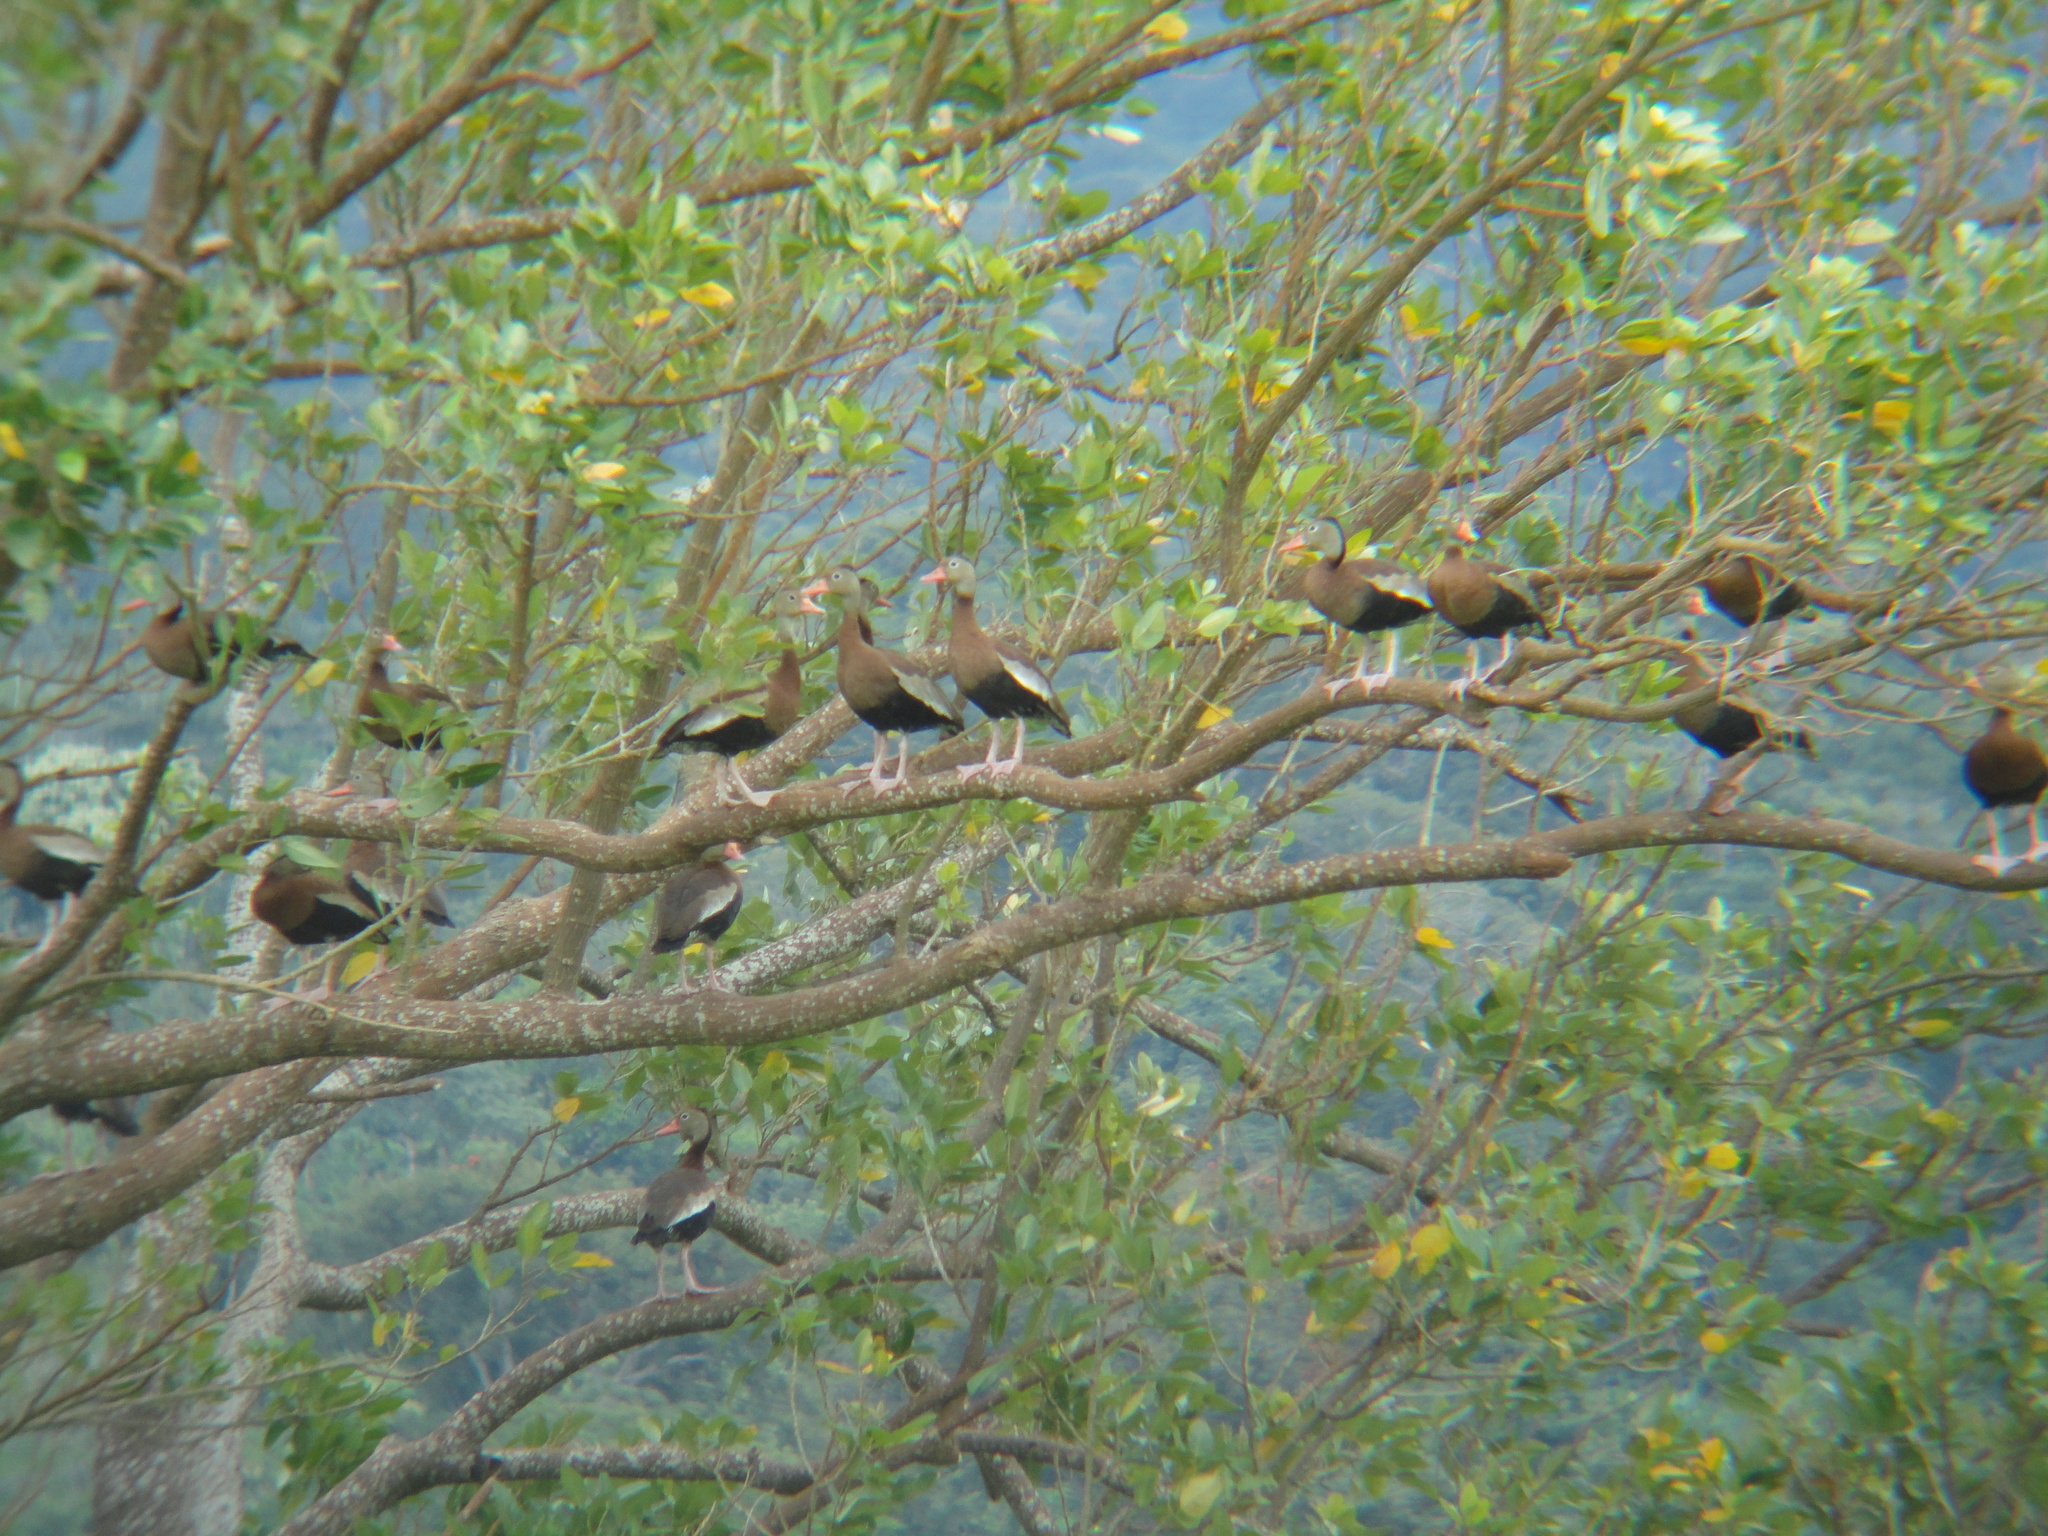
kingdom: Animalia
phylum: Chordata
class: Aves
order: Anseriformes
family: Anatidae
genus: Dendrocygna
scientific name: Dendrocygna autumnalis
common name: Black-bellied whistling duck
